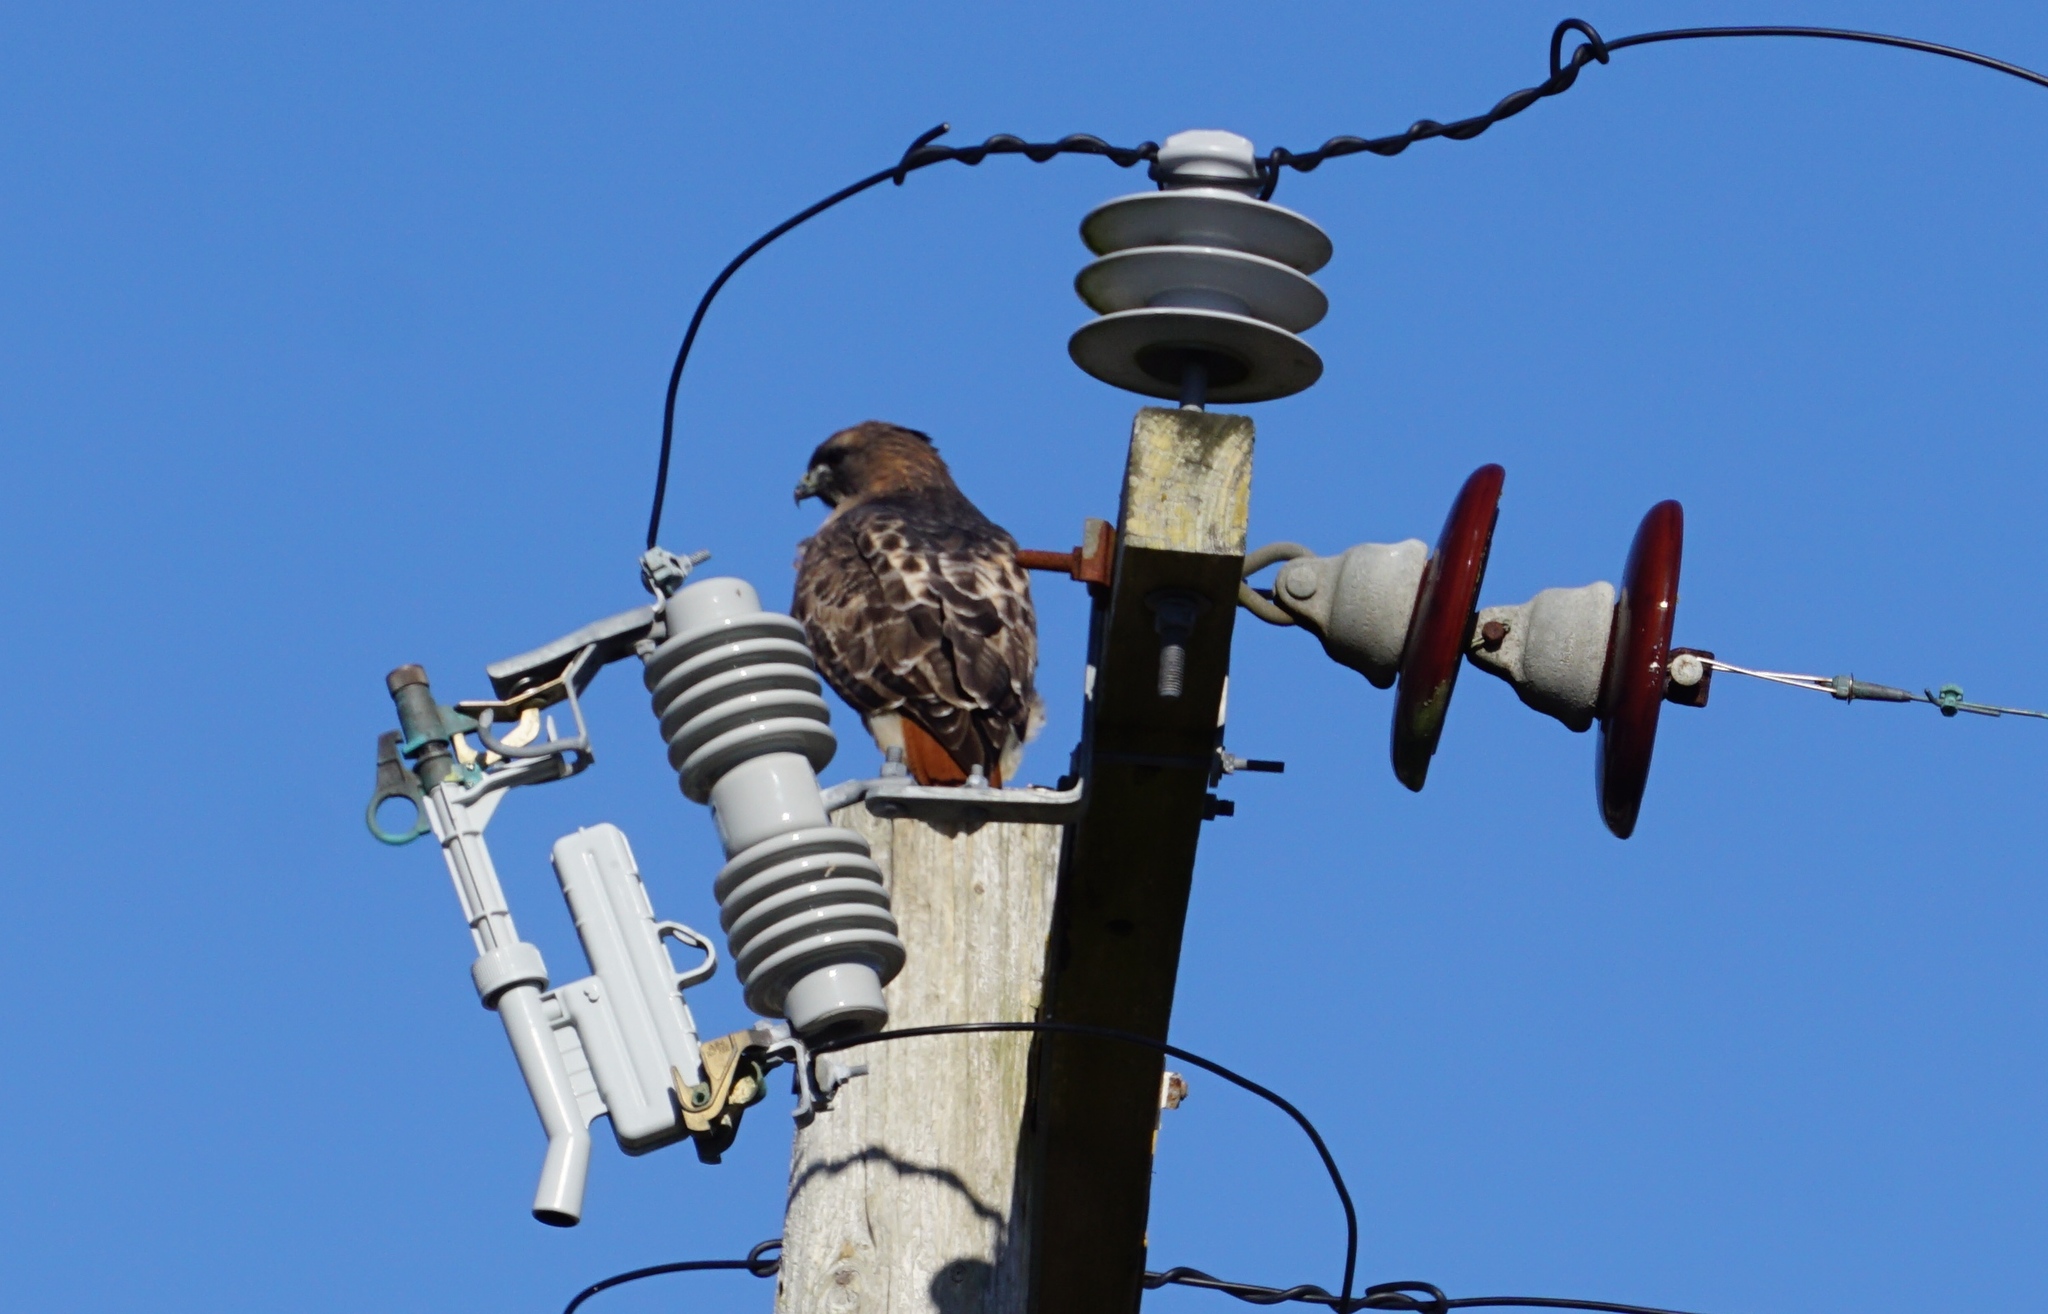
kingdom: Animalia
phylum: Chordata
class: Aves
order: Accipitriformes
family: Accipitridae
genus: Buteo
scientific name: Buteo jamaicensis
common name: Red-tailed hawk
